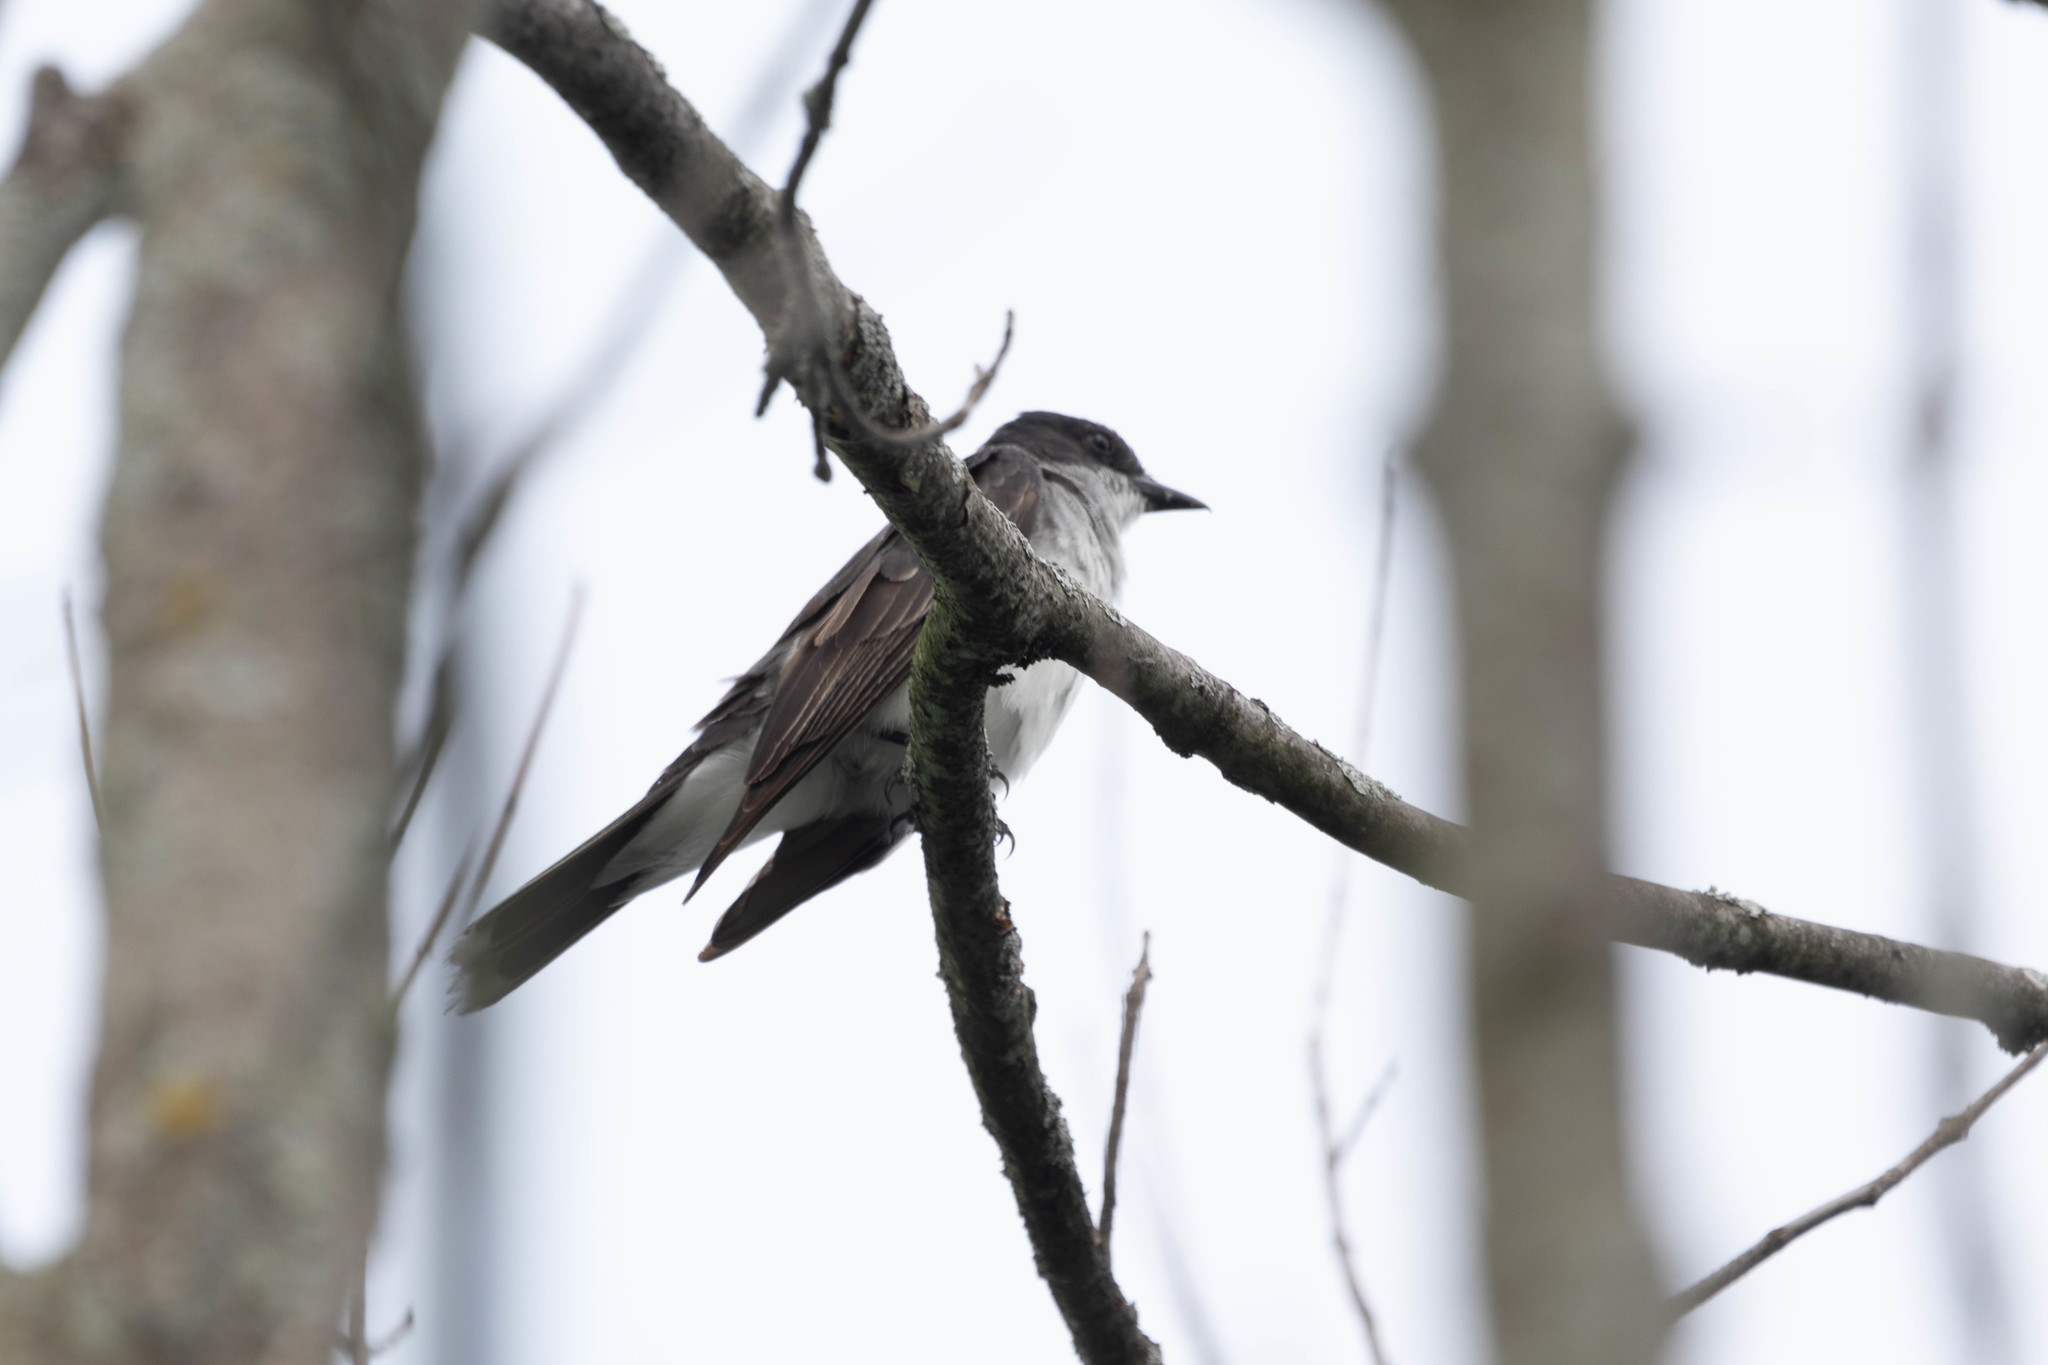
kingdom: Animalia
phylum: Chordata
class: Aves
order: Passeriformes
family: Tyrannidae
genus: Tyrannus
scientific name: Tyrannus tyrannus
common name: Eastern kingbird
